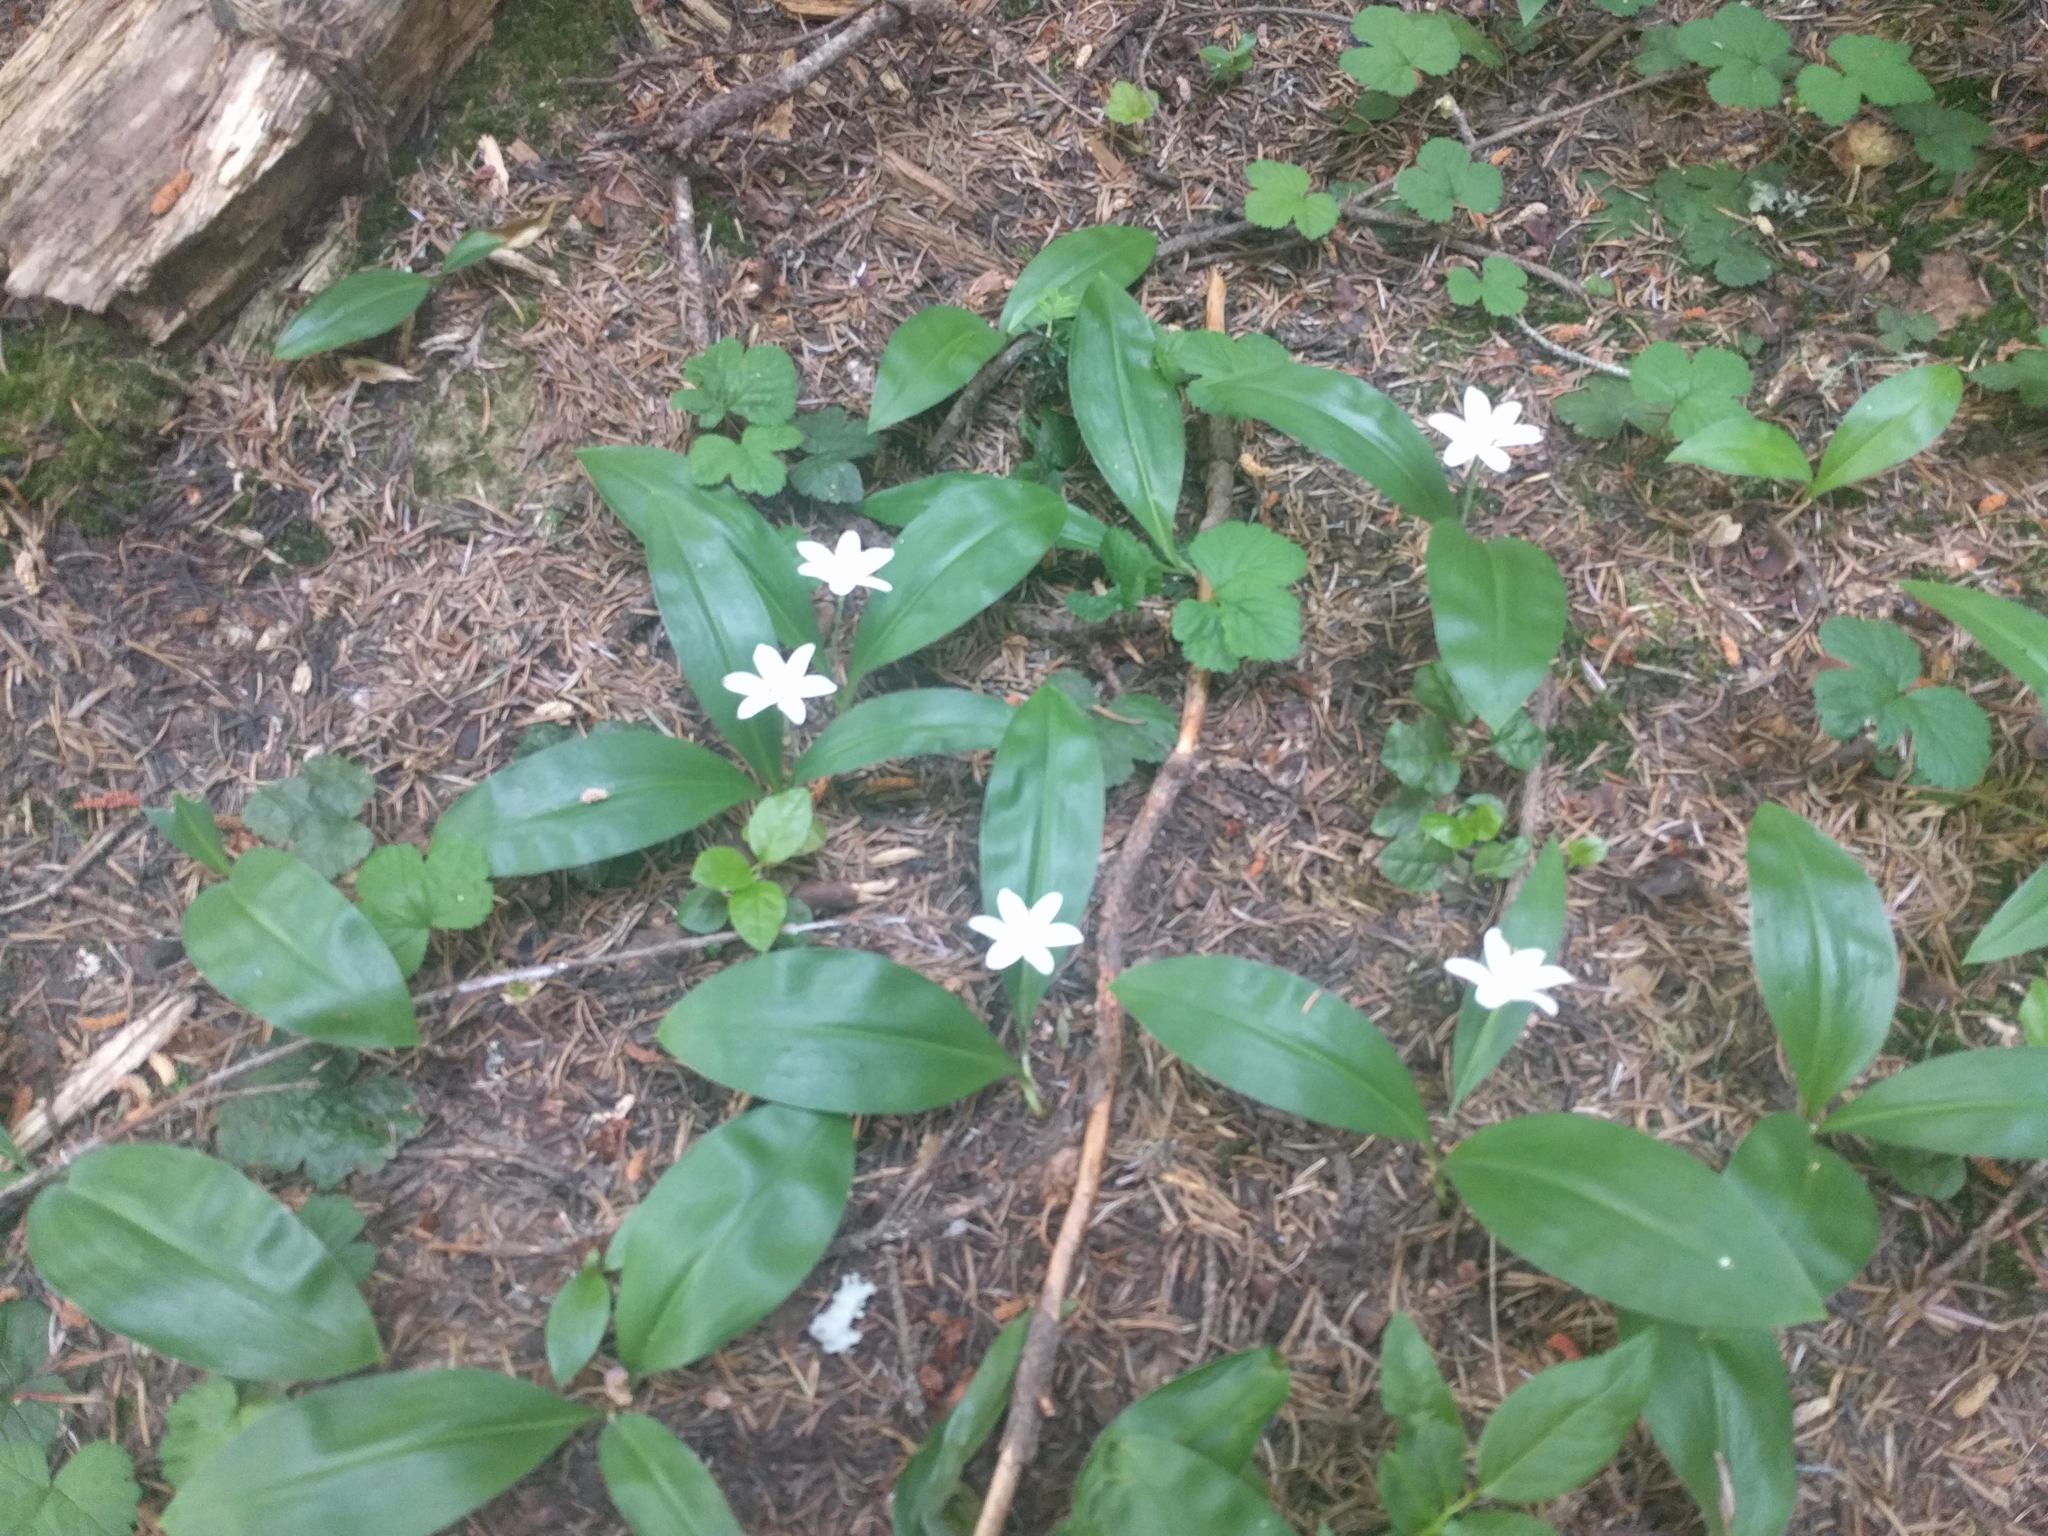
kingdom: Plantae
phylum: Tracheophyta
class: Liliopsida
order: Liliales
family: Liliaceae
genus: Clintonia
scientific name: Clintonia uniflora
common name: Queen's cup
